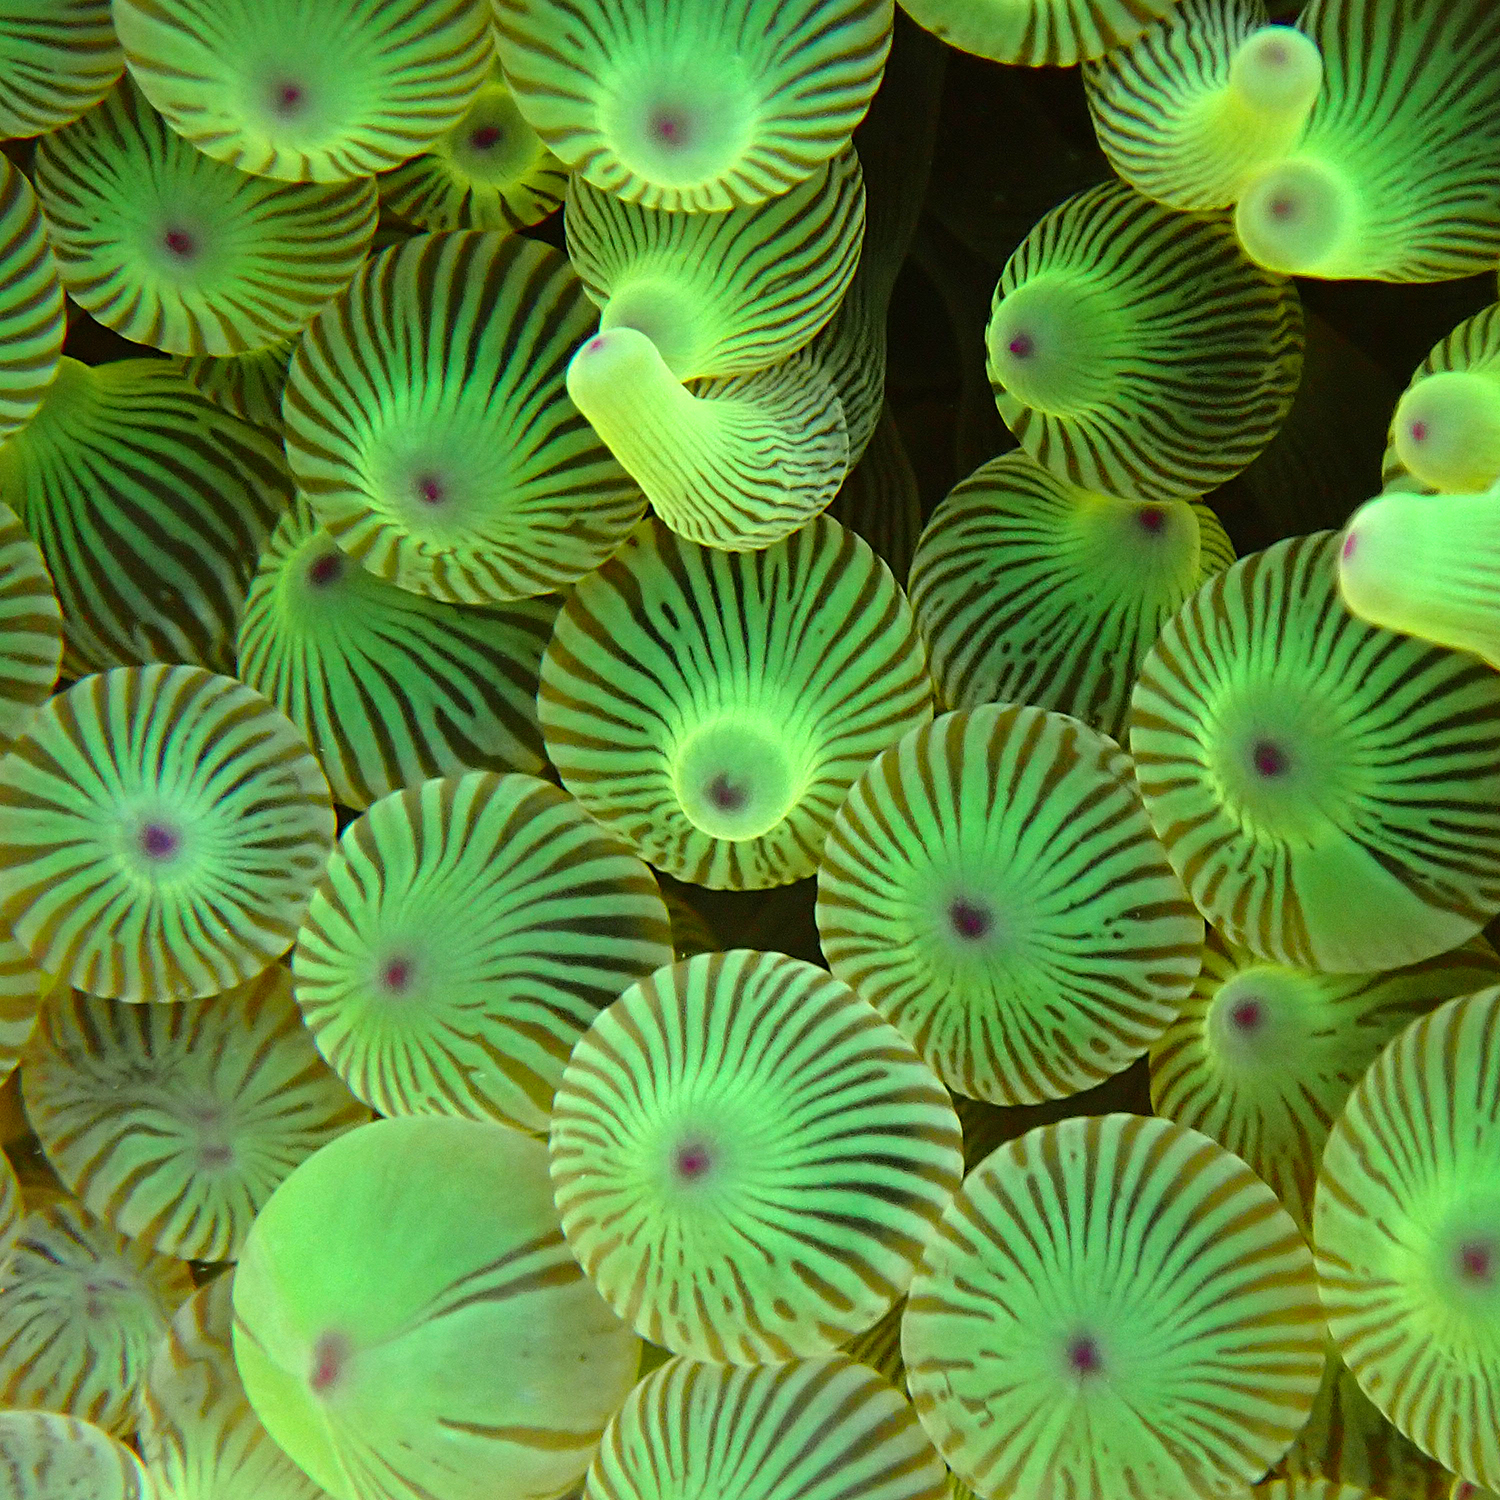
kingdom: Animalia
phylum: Cnidaria
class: Anthozoa
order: Actiniaria
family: Actiniidae
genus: Entacmaea
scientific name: Entacmaea quadricolor
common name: Bulb tentacle sea anemone
